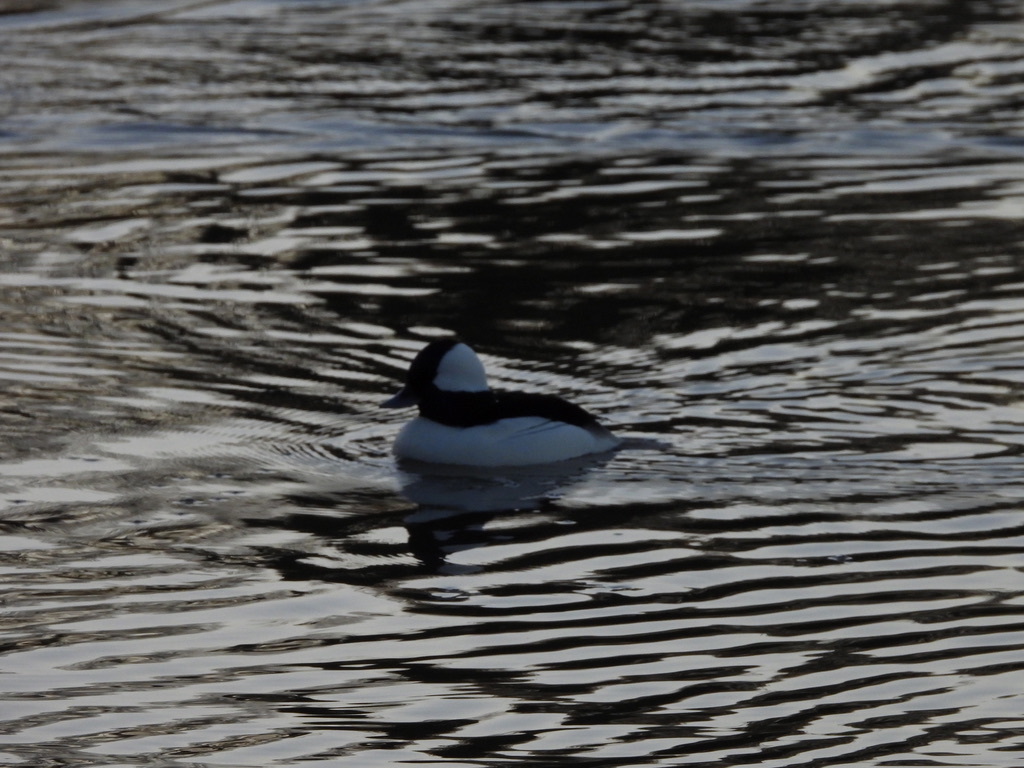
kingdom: Animalia
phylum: Chordata
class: Aves
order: Anseriformes
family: Anatidae
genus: Bucephala
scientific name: Bucephala albeola
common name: Bufflehead
